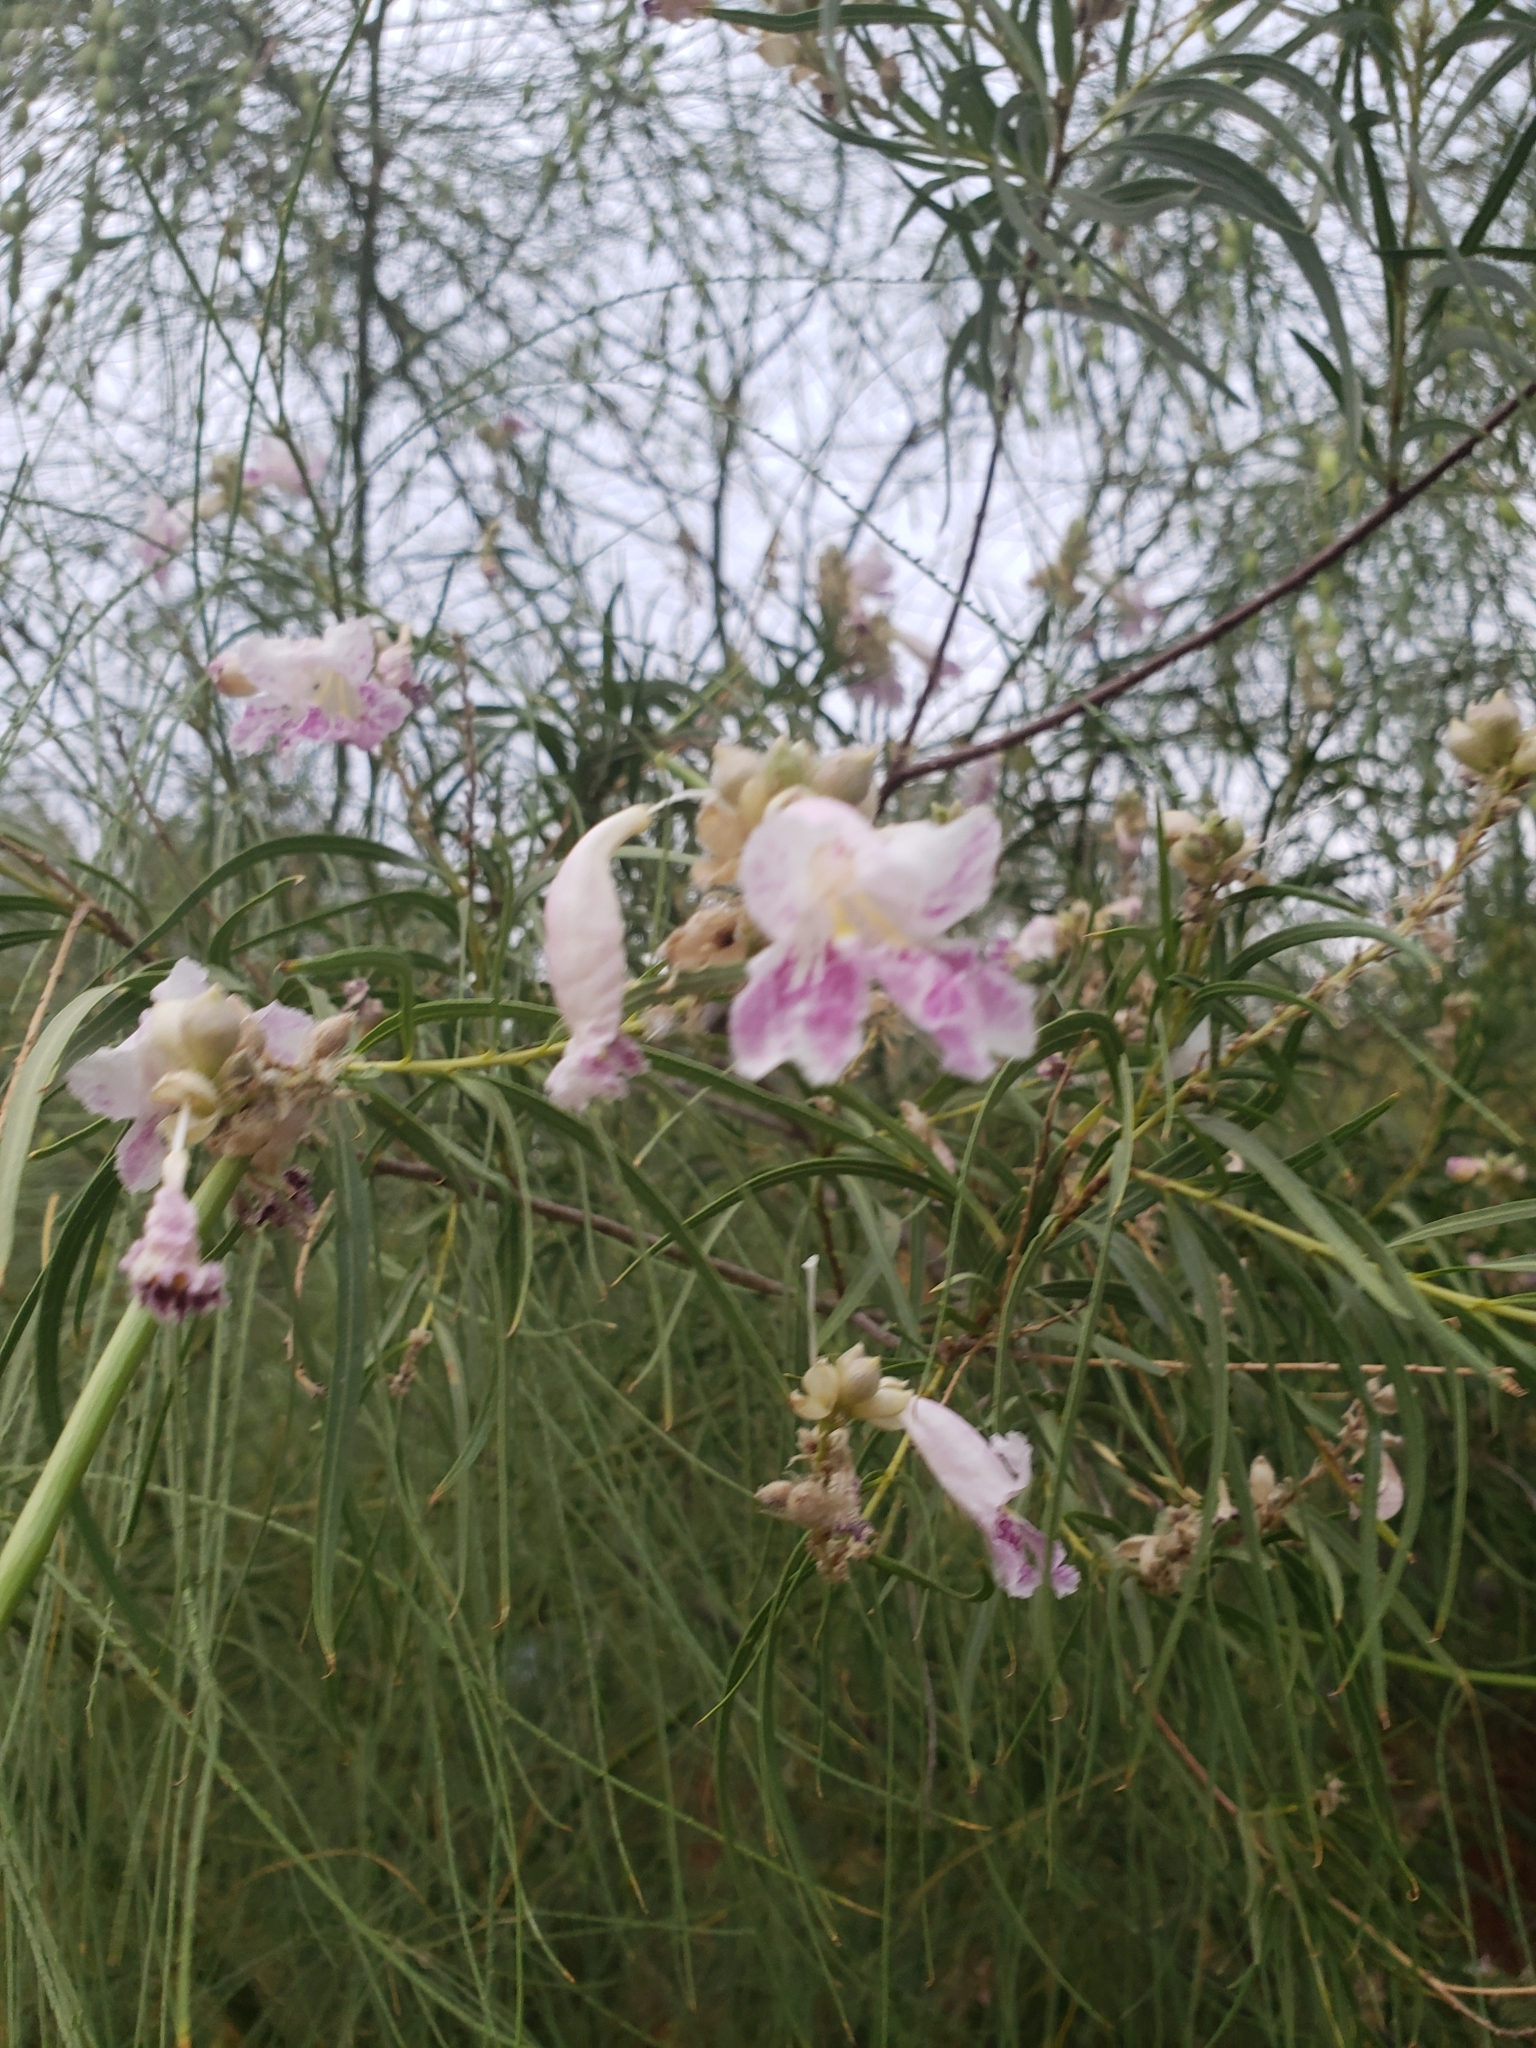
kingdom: Plantae
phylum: Tracheophyta
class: Magnoliopsida
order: Lamiales
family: Bignoniaceae
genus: Chilopsis
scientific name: Chilopsis linearis
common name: Desert-willow
